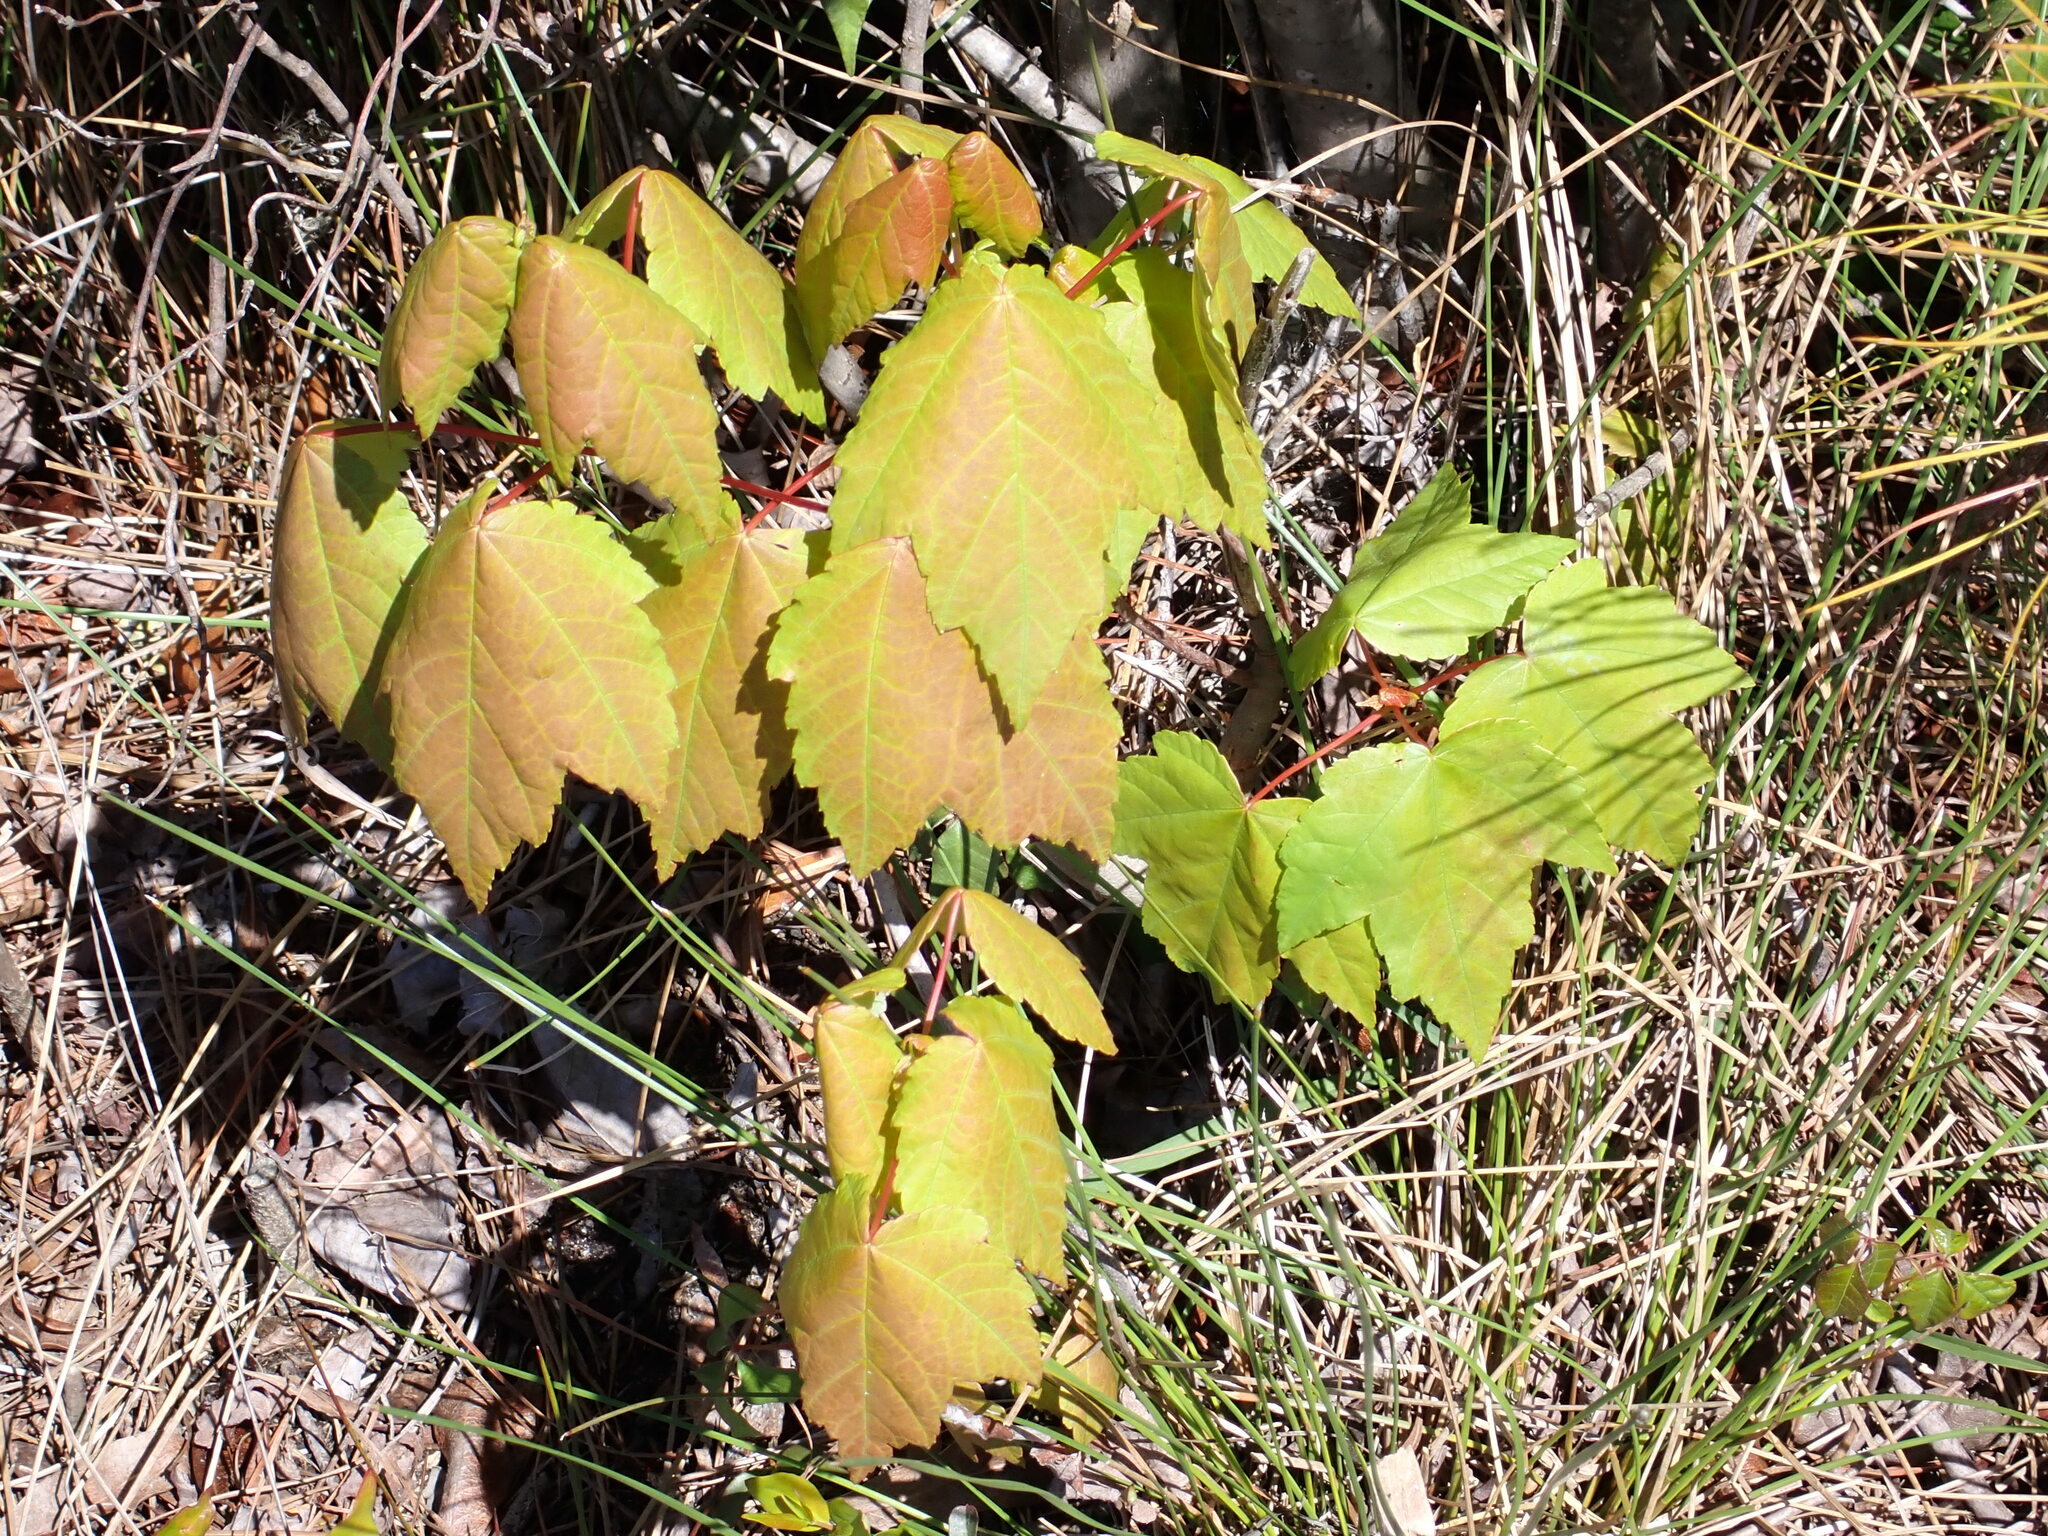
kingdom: Plantae
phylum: Tracheophyta
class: Magnoliopsida
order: Sapindales
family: Sapindaceae
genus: Acer
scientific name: Acer rubrum
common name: Red maple
